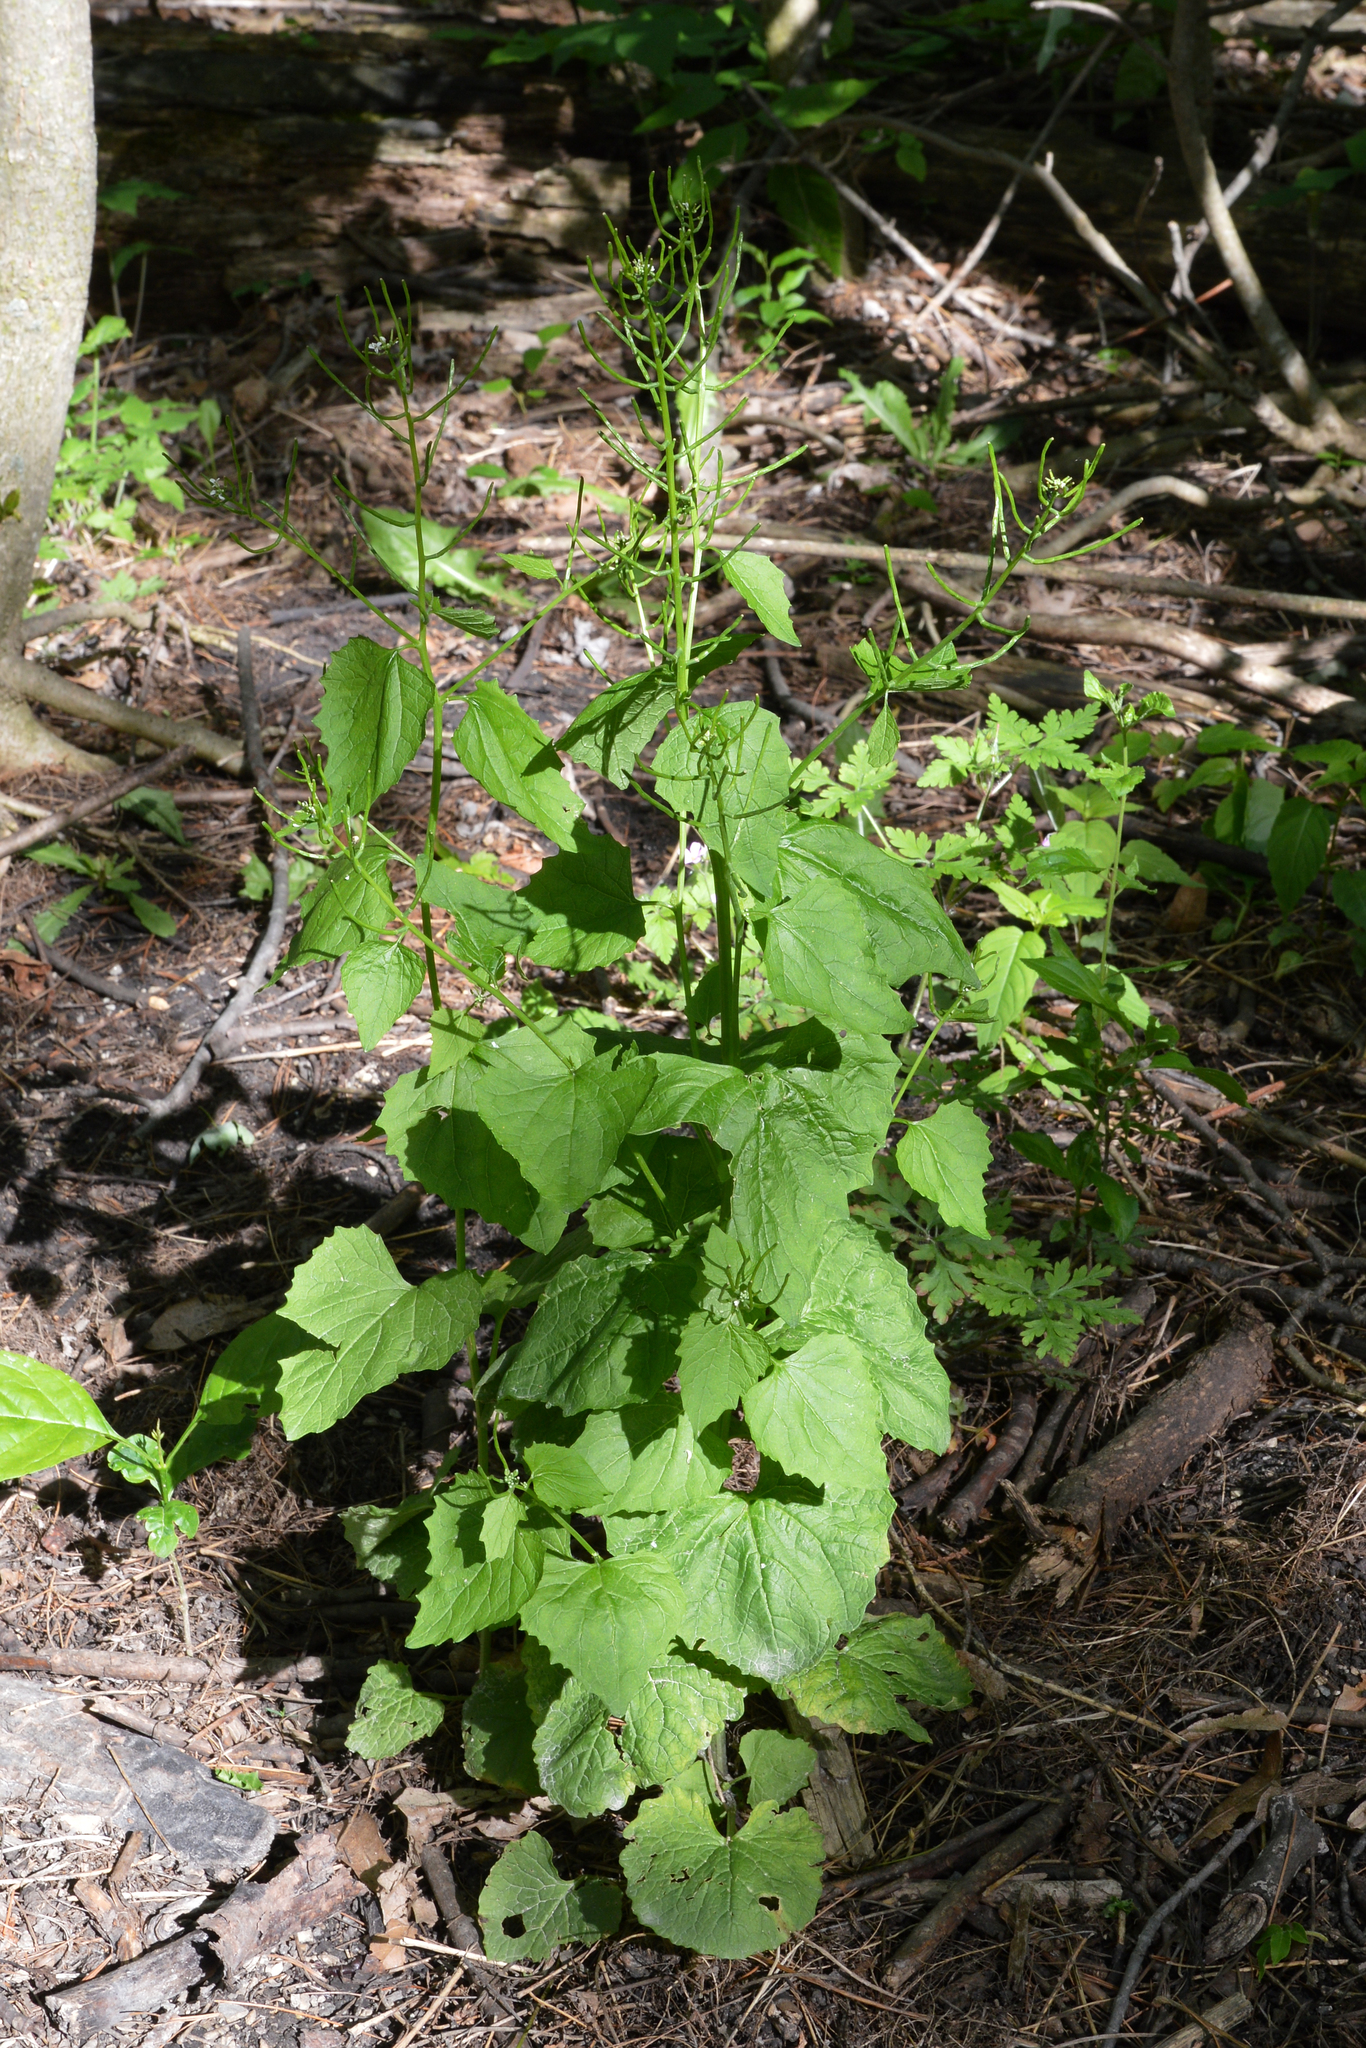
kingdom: Plantae
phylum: Tracheophyta
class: Magnoliopsida
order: Brassicales
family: Brassicaceae
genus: Alliaria
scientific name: Alliaria petiolata
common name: Garlic mustard
